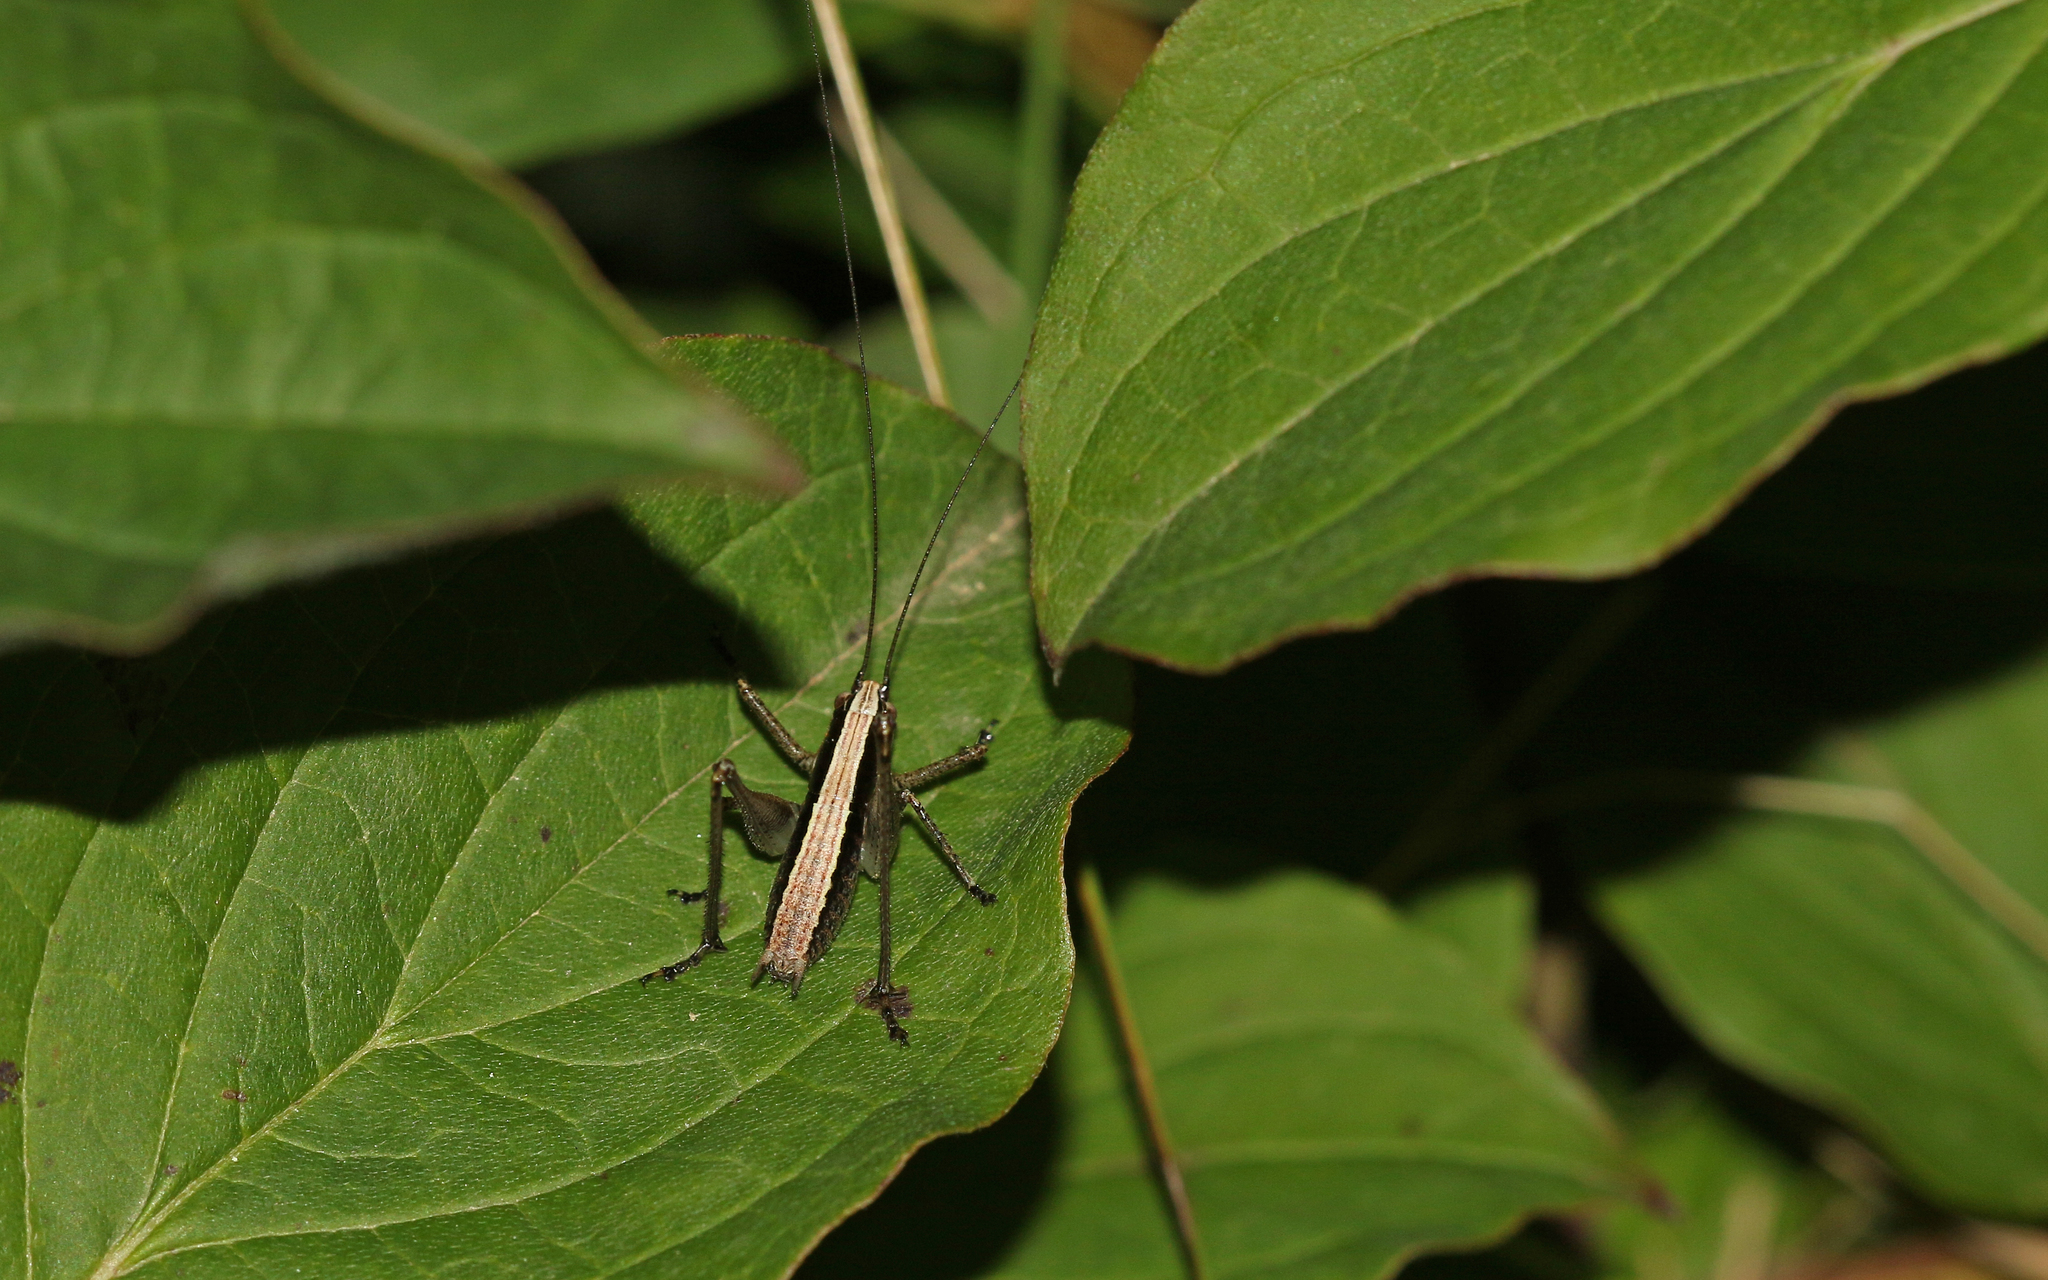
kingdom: Animalia
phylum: Arthropoda
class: Insecta
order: Orthoptera
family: Tettigoniidae
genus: Yersinella
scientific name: Yersinella raymondii
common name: Raymond's bush-cricket
